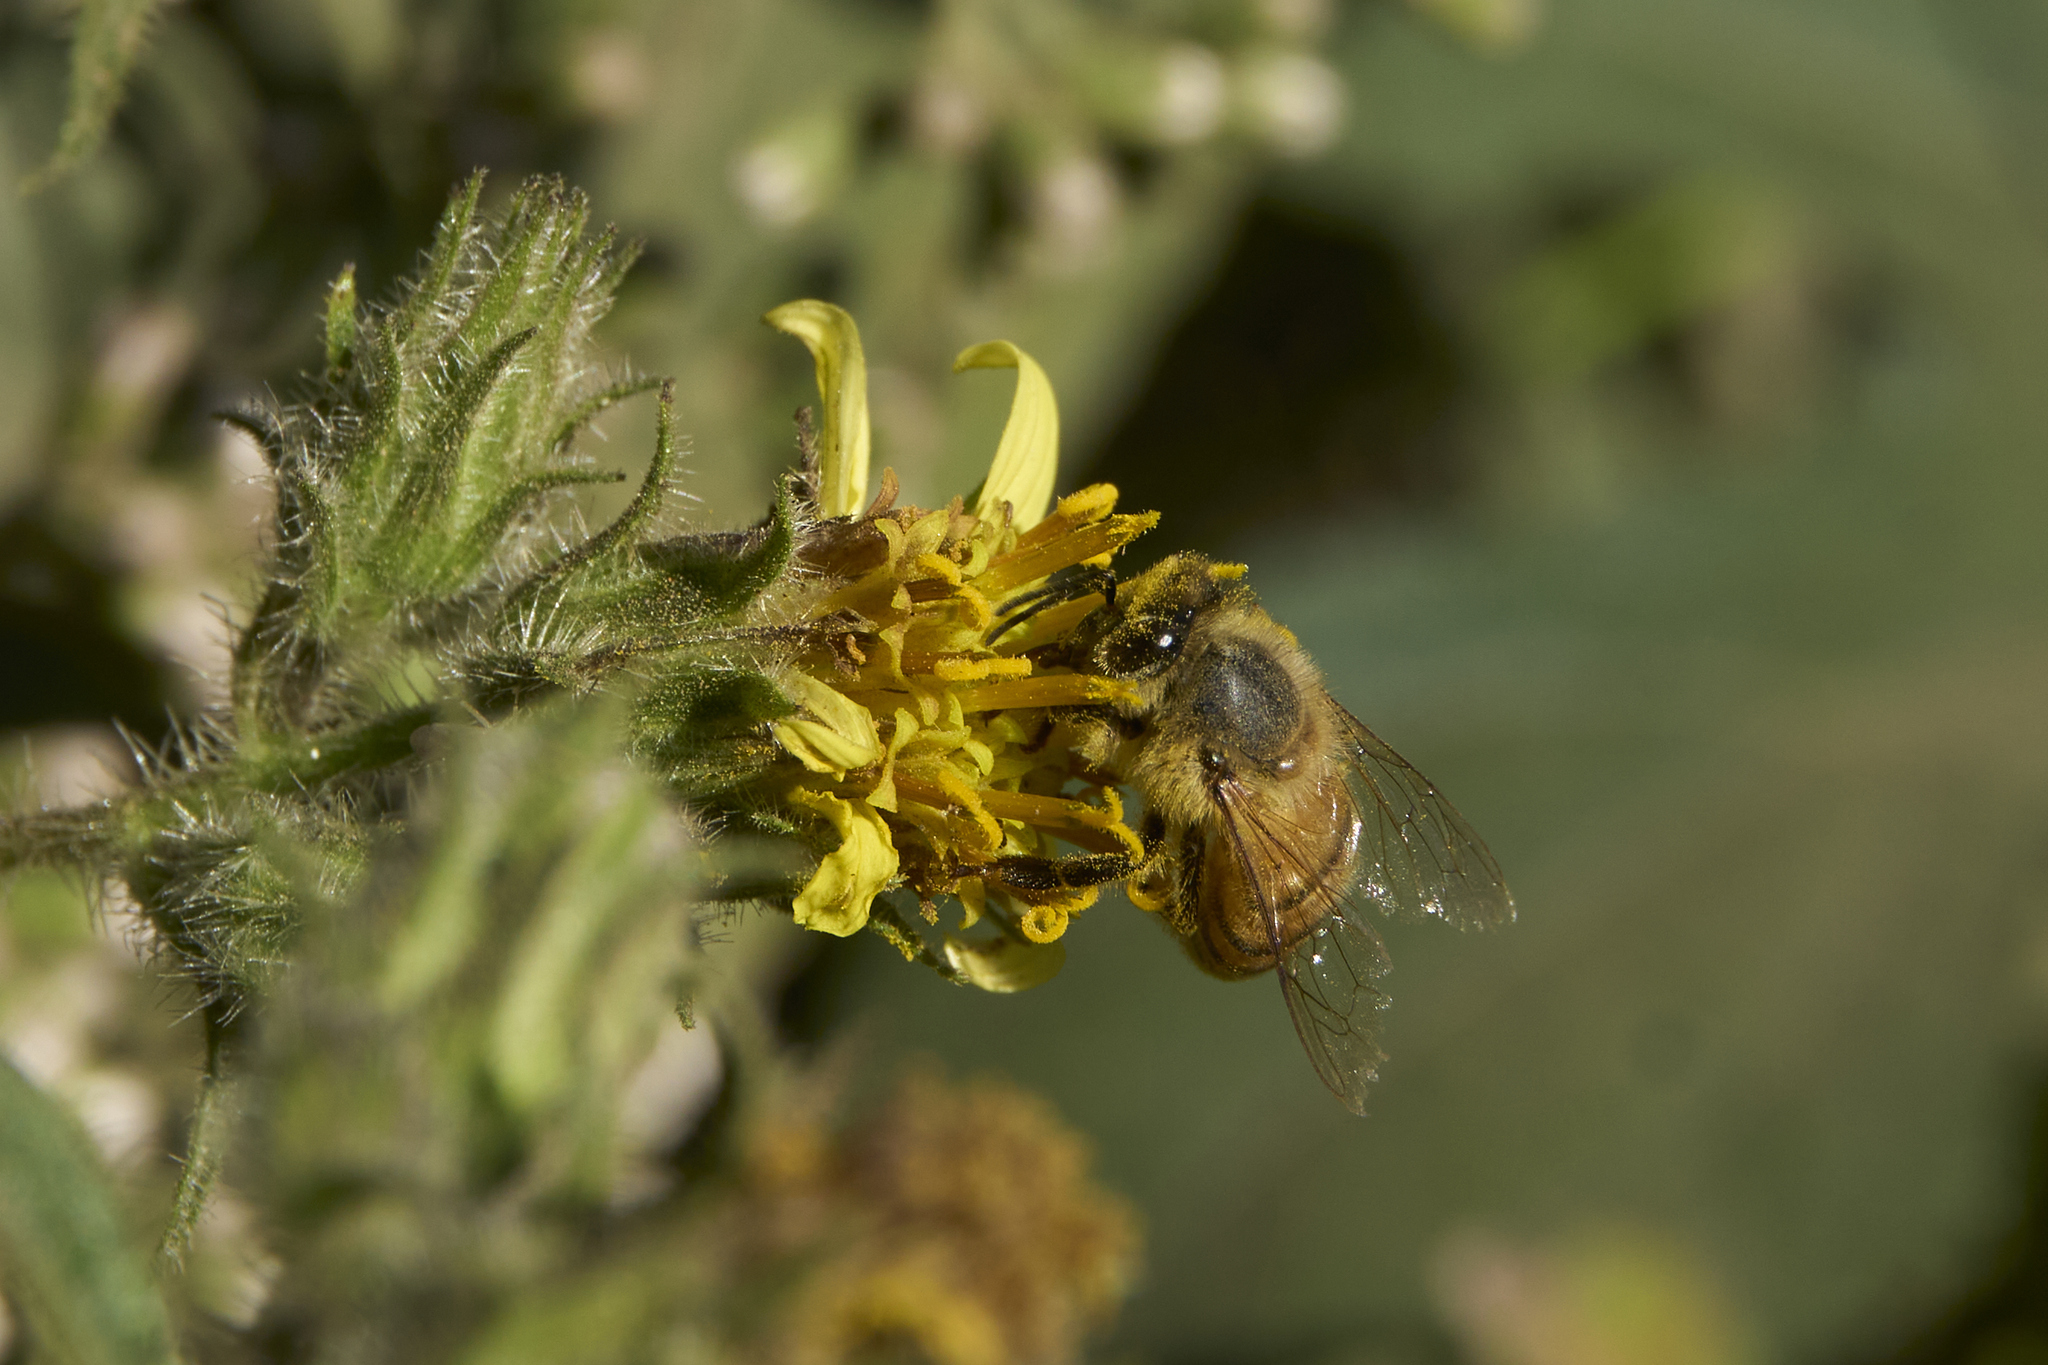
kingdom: Animalia
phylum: Arthropoda
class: Insecta
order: Hymenoptera
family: Apidae
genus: Apis
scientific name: Apis mellifera
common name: Honey bee
